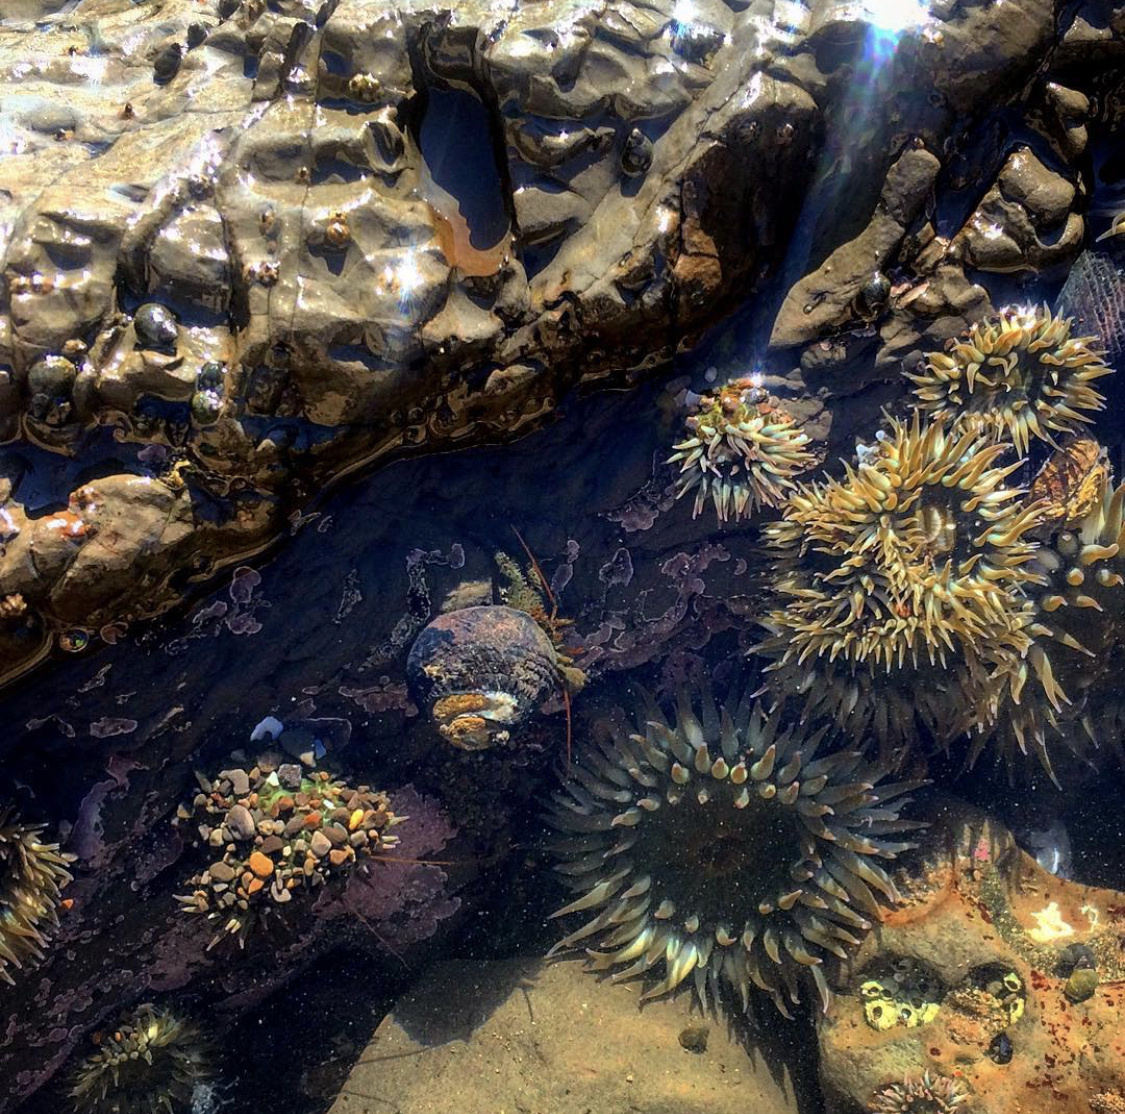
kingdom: Animalia
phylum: Cnidaria
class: Anthozoa
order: Actiniaria
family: Actiniidae
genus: Anthopleura
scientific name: Anthopleura elegantissima
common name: Clonal anemone
